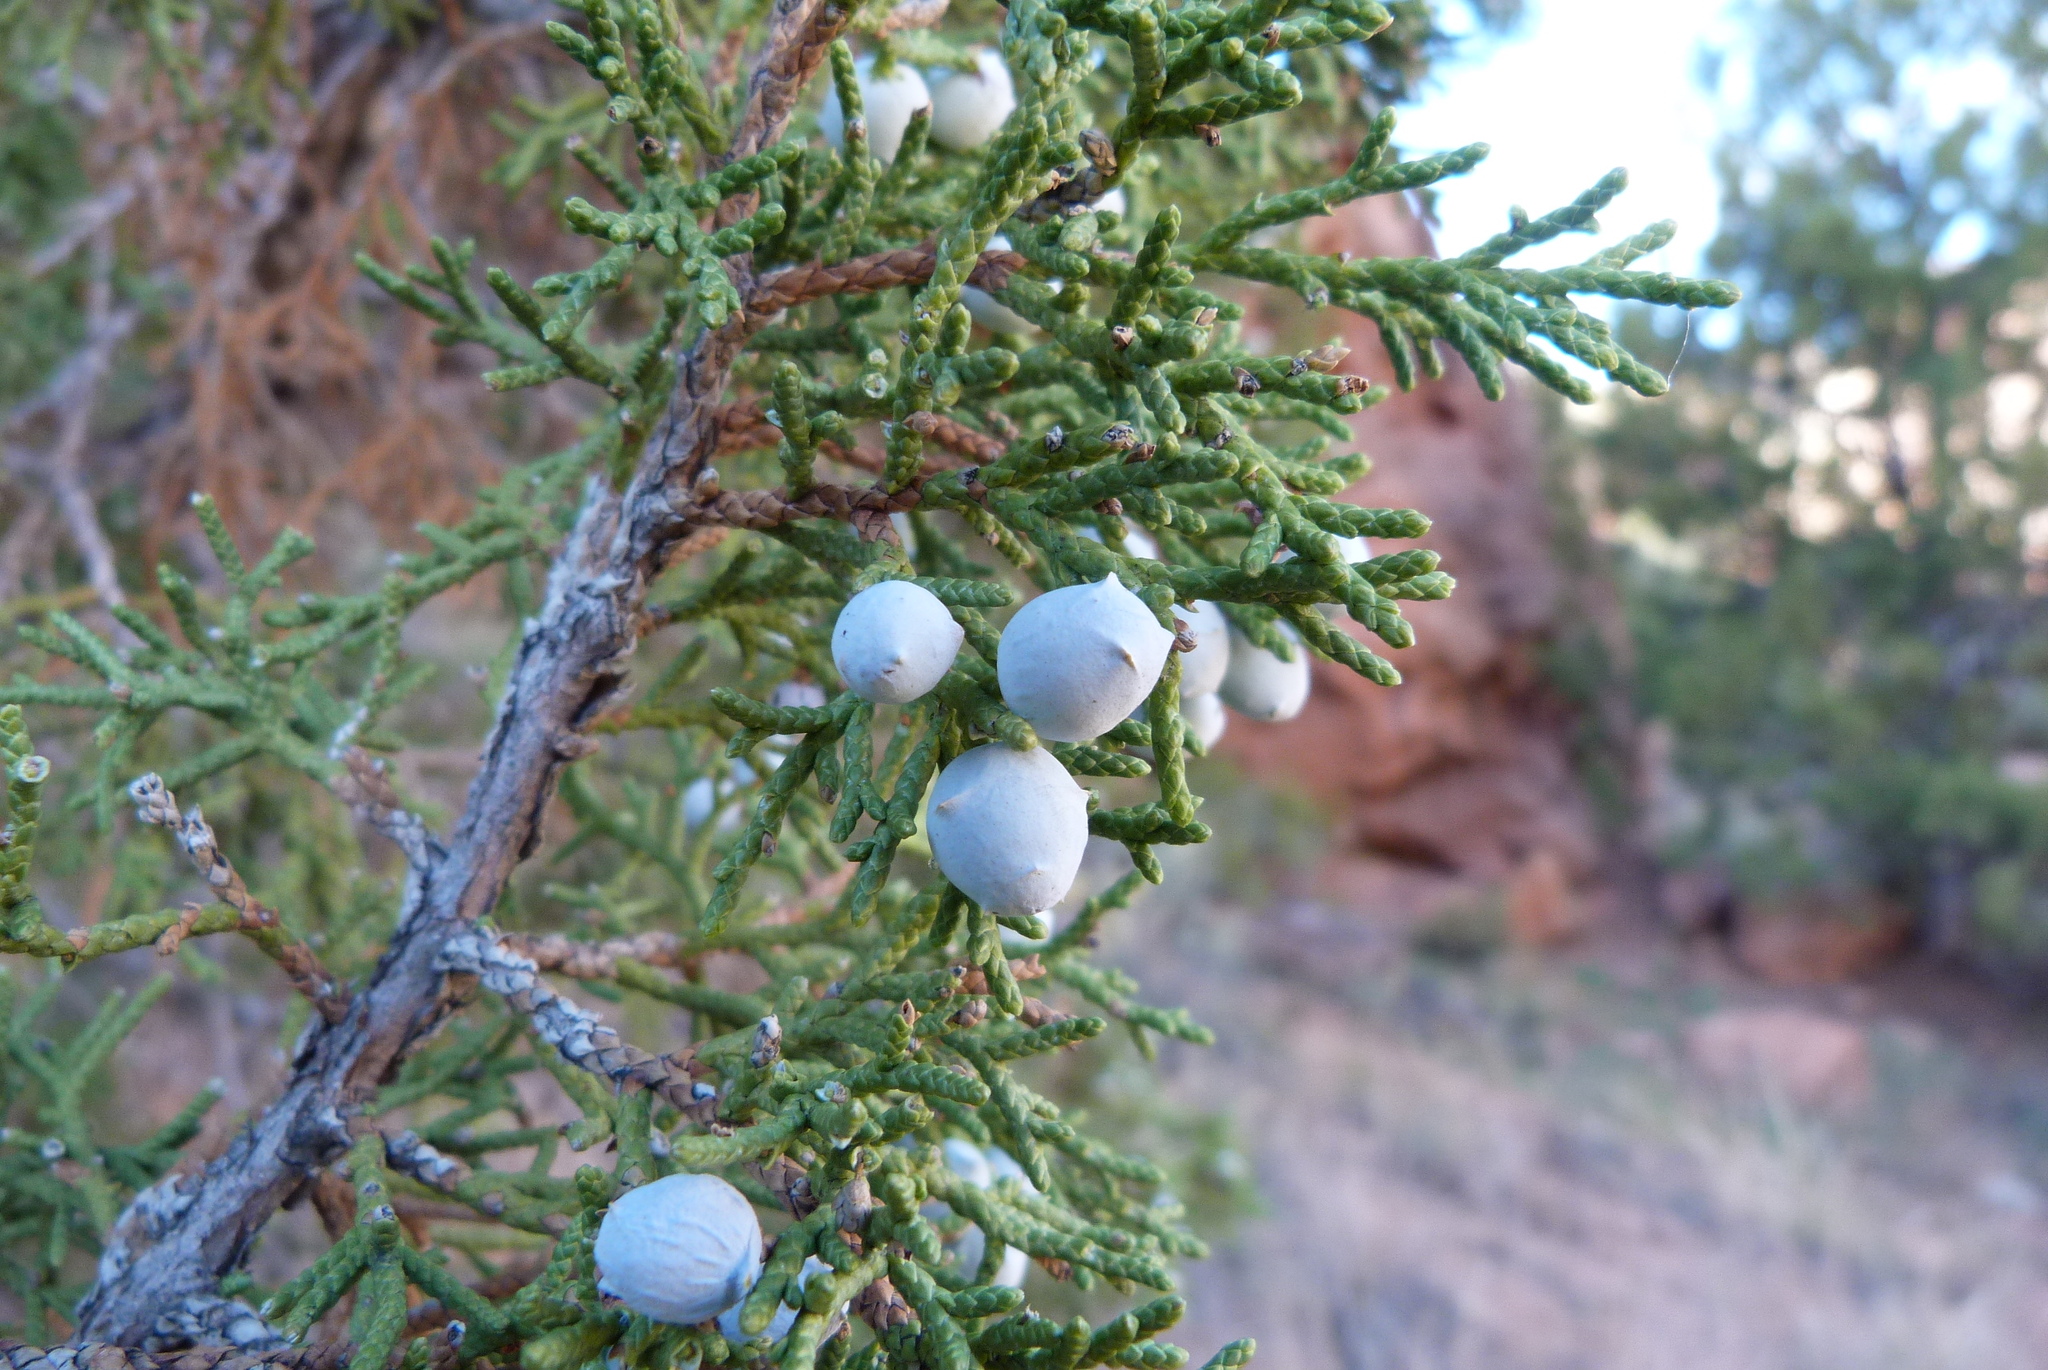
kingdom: Plantae
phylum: Tracheophyta
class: Pinopsida
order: Pinales
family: Cupressaceae
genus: Juniperus
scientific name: Juniperus osteosperma
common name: Utah juniper
